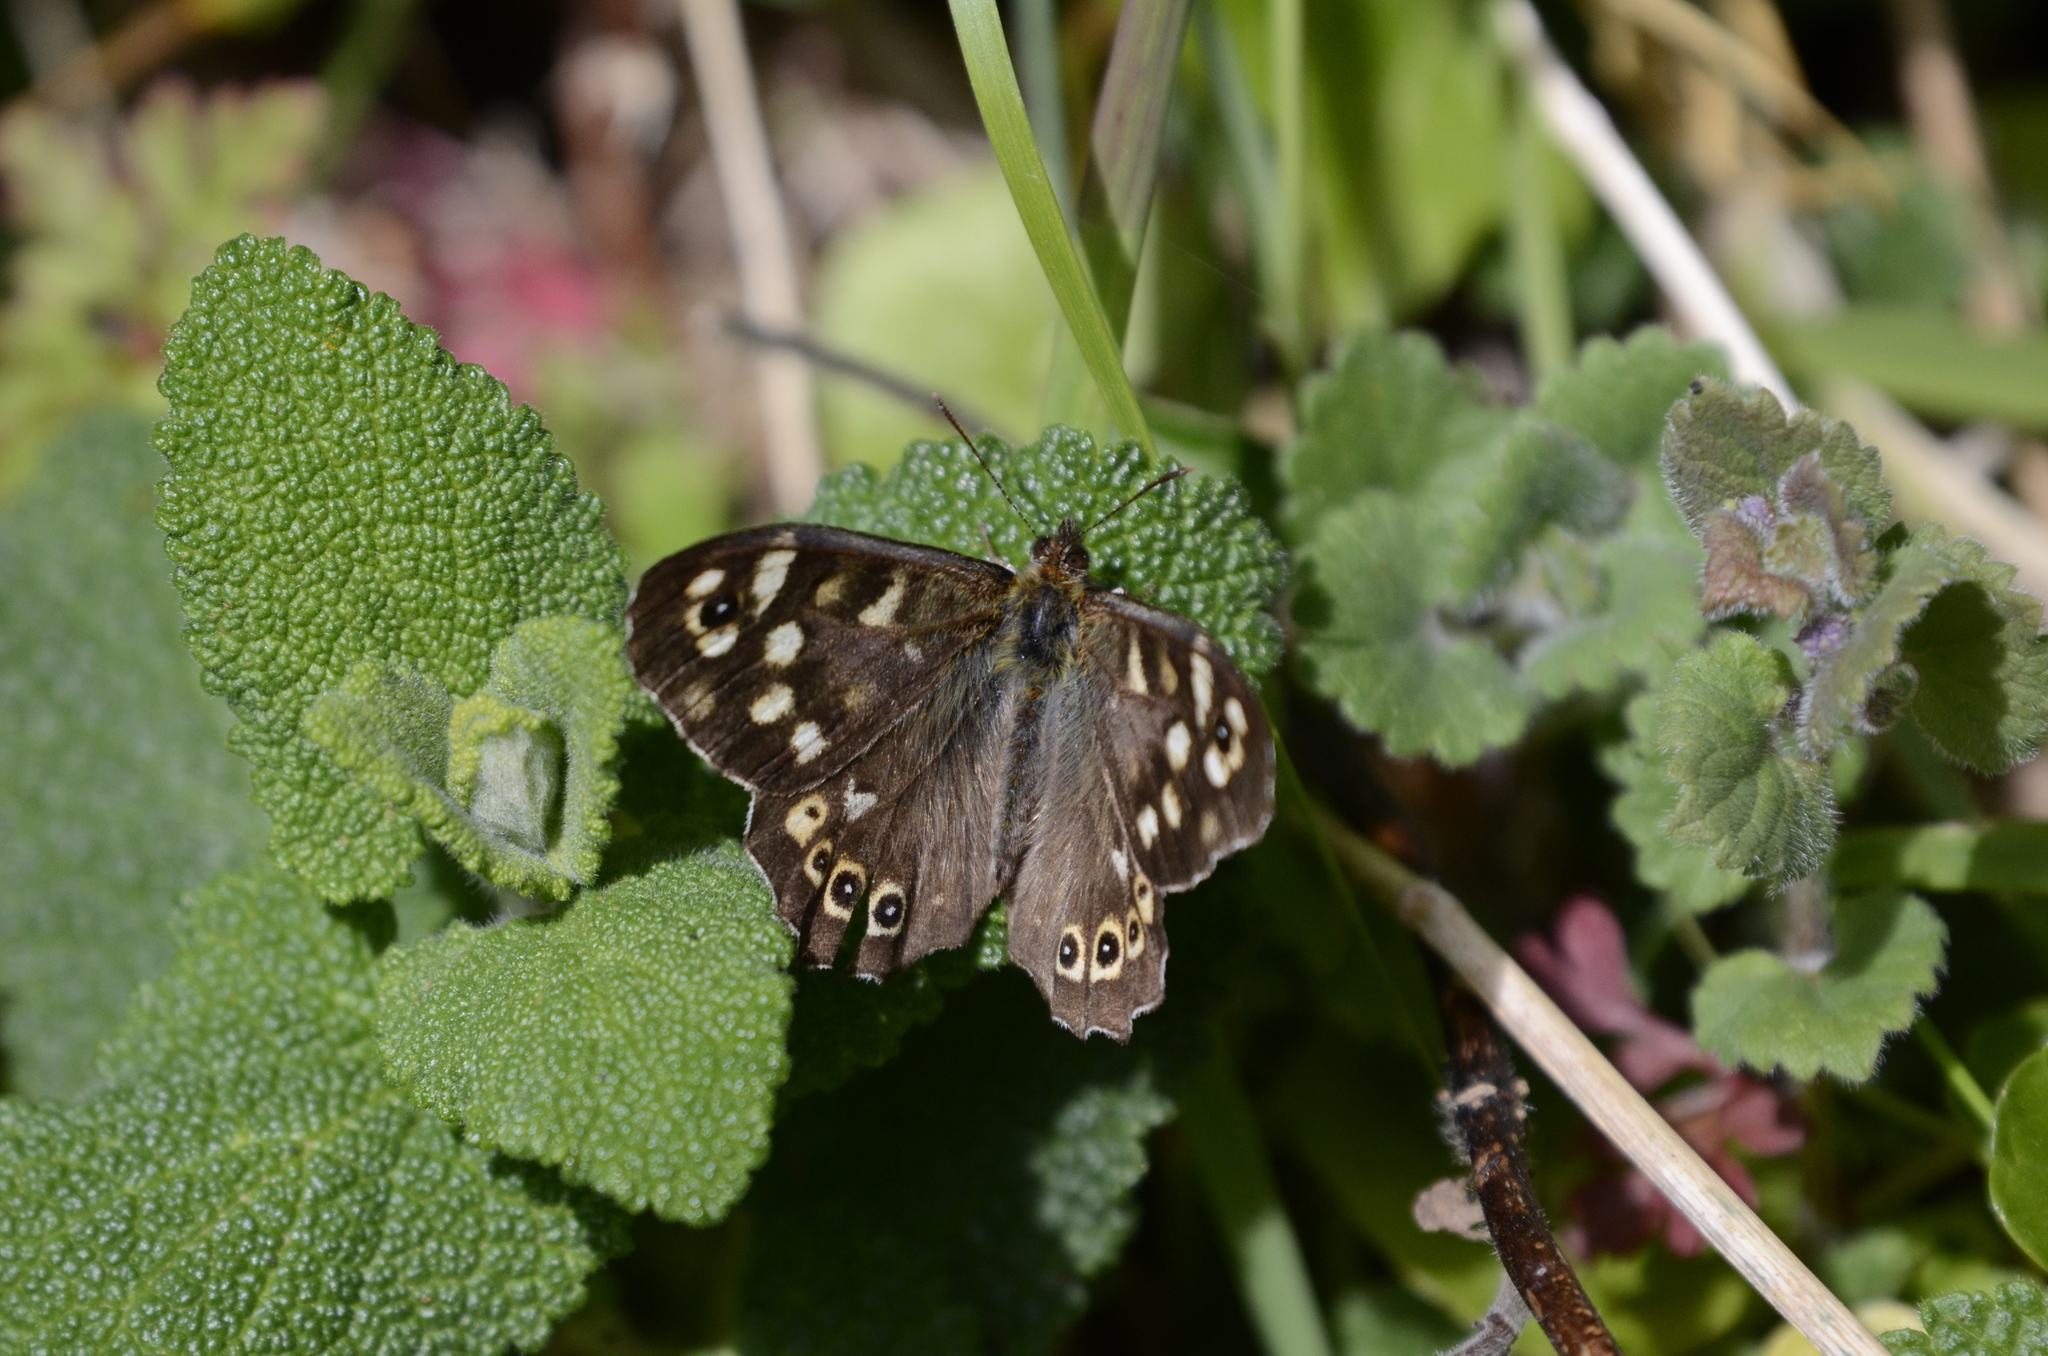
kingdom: Animalia
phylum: Arthropoda
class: Insecta
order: Lepidoptera
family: Nymphalidae
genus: Pararge
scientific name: Pararge aegeria
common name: Speckled wood
